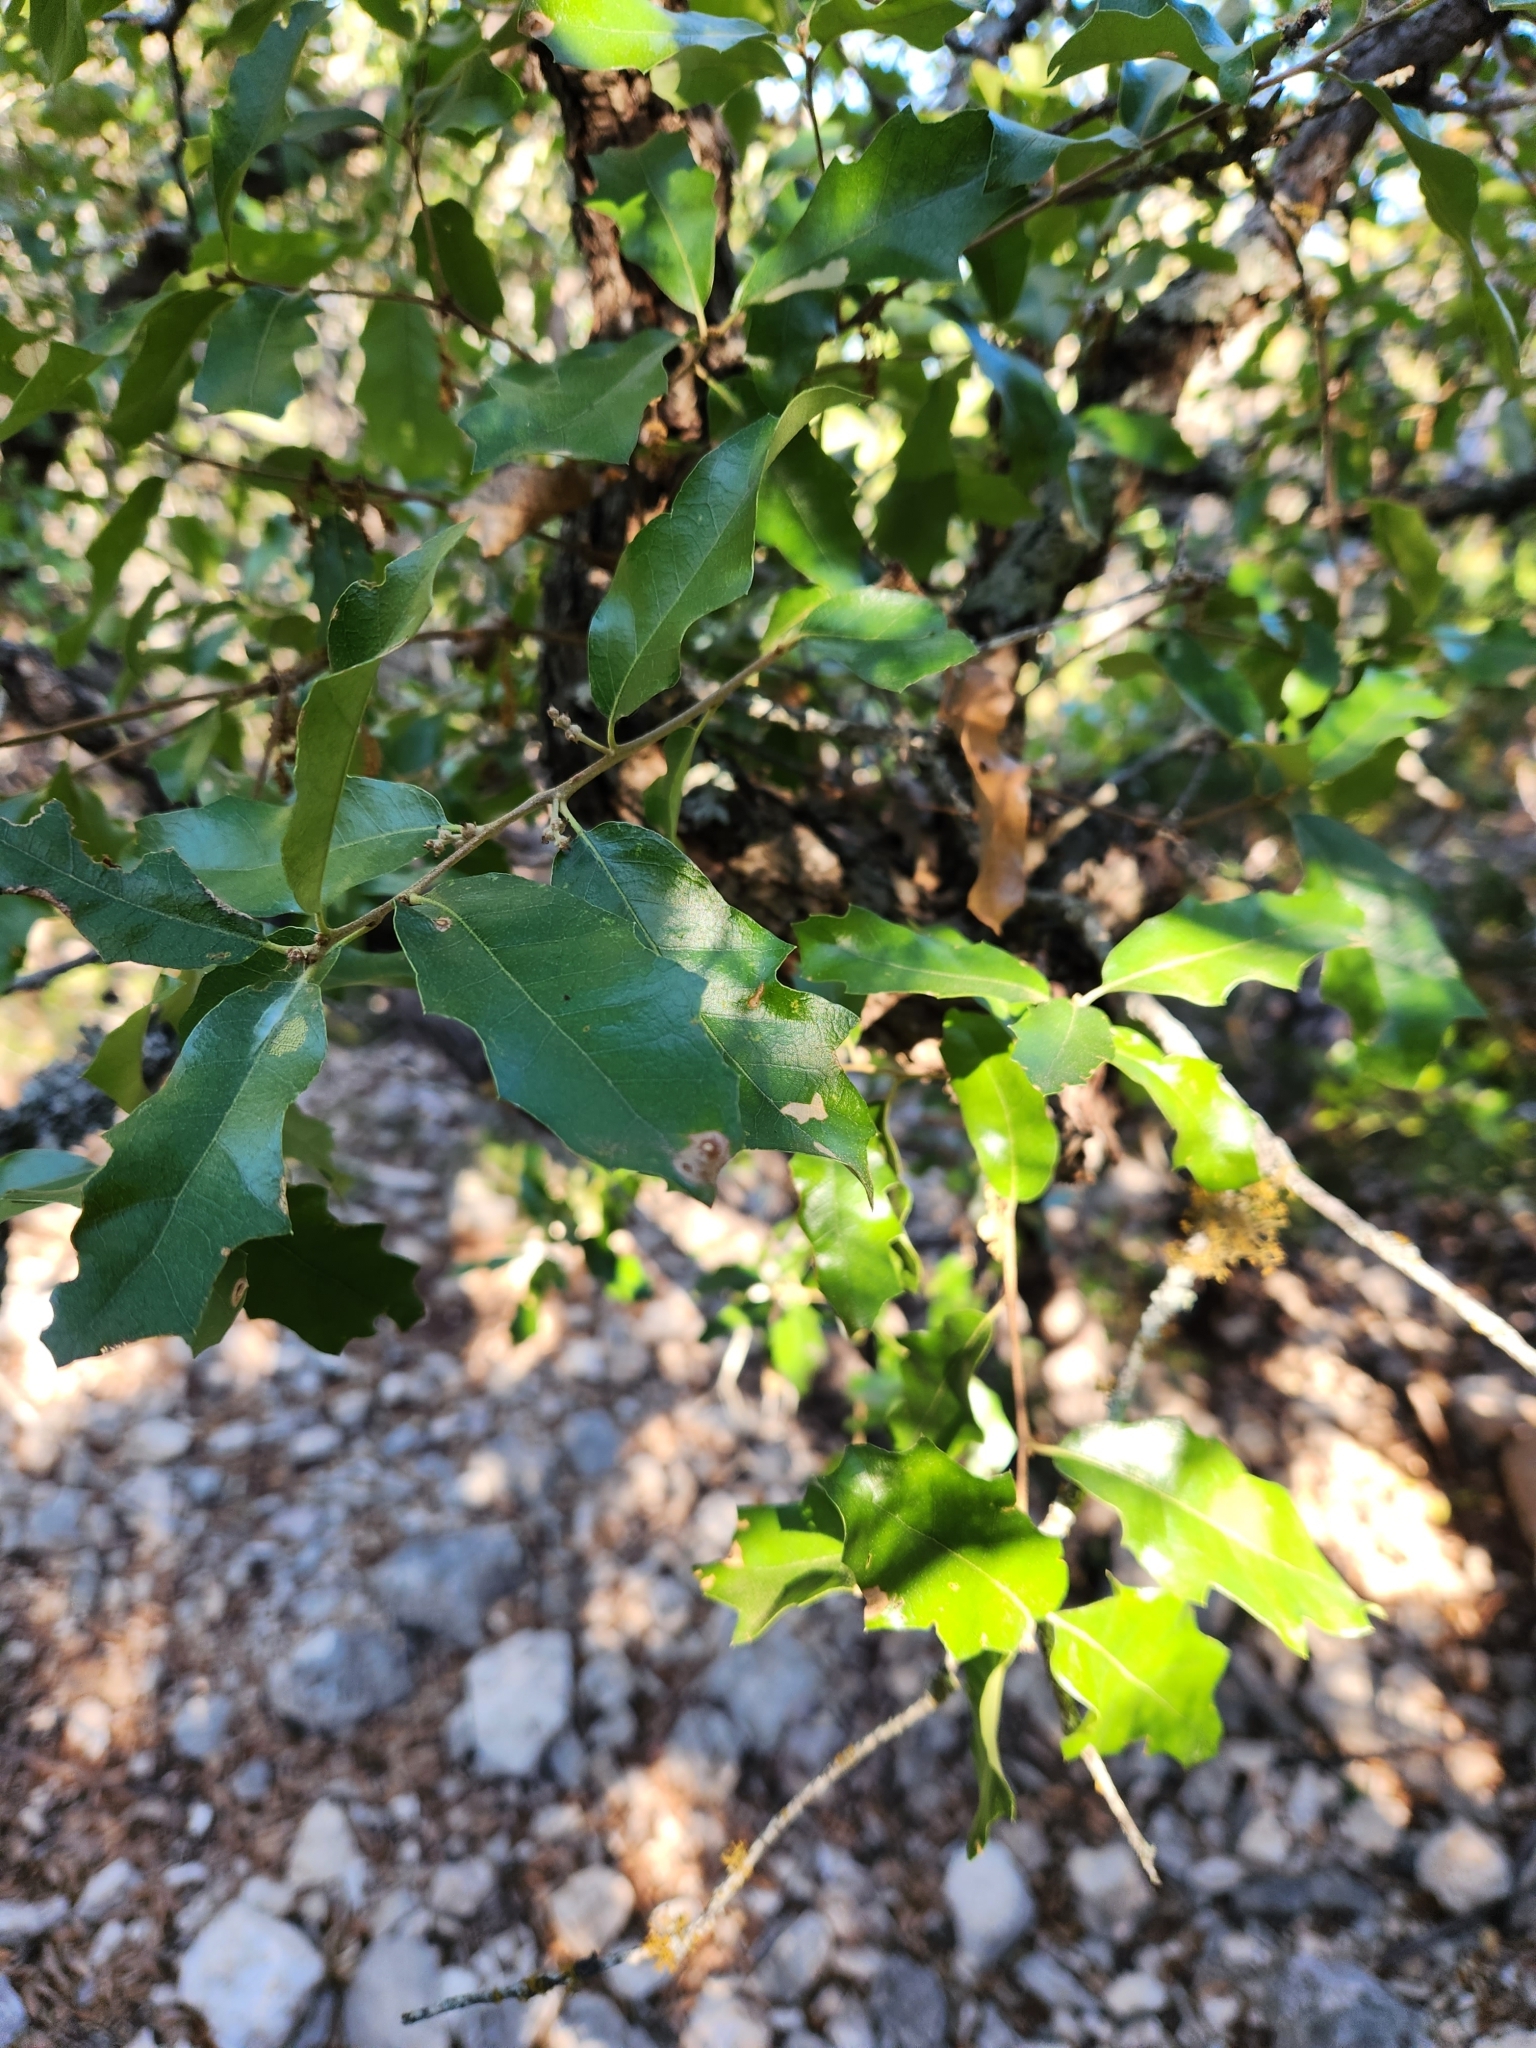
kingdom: Plantae
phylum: Tracheophyta
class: Magnoliopsida
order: Fagales
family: Fagaceae
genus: Quercus
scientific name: Quercus vaseyana
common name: Sandpaper oak
